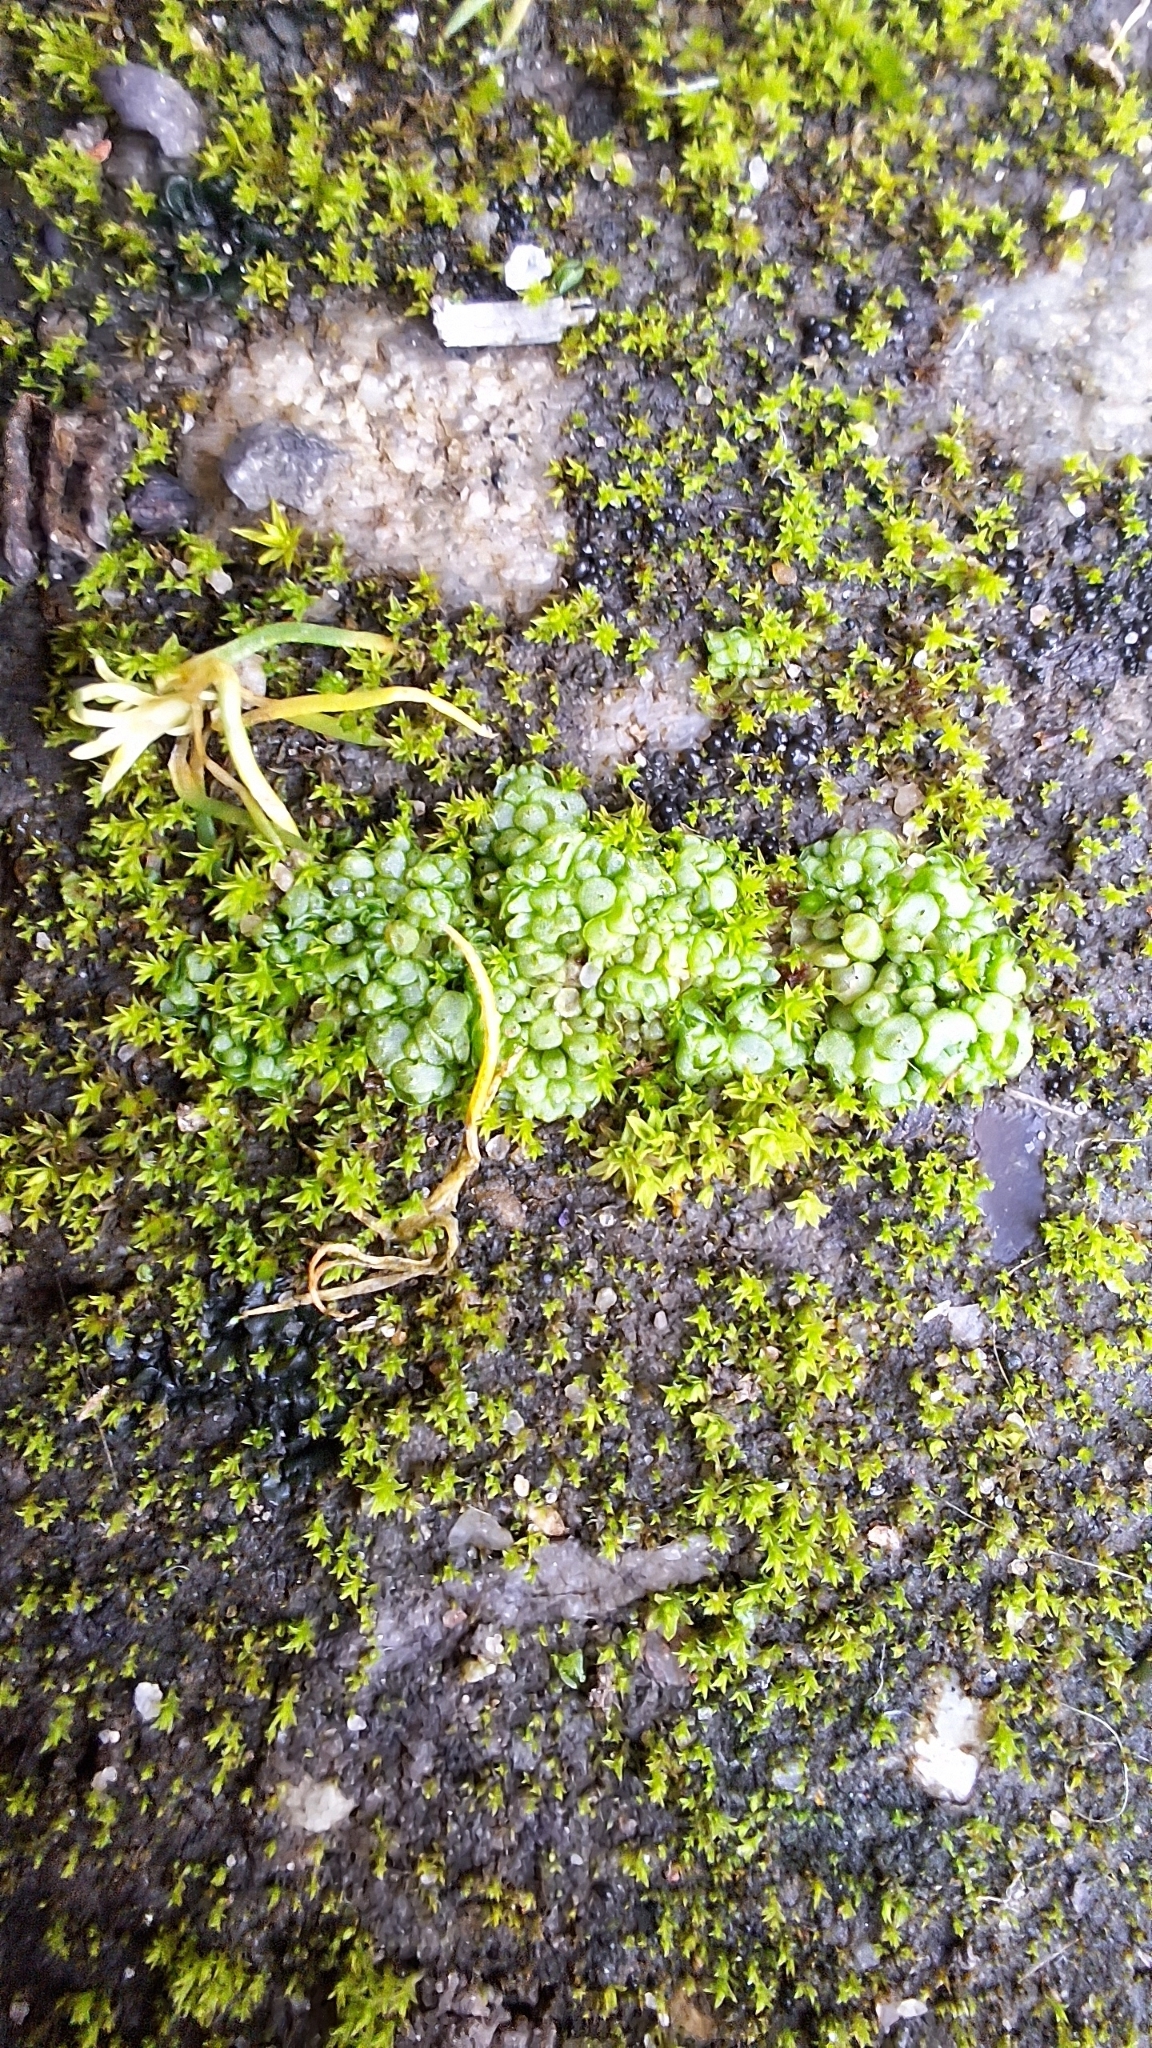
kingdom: Plantae
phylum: Marchantiophyta
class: Marchantiopsida
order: Sphaerocarpales
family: Sphaerocarpaceae
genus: Sphaerocarpos
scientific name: Sphaerocarpos texanus
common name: Texas balloonwort
